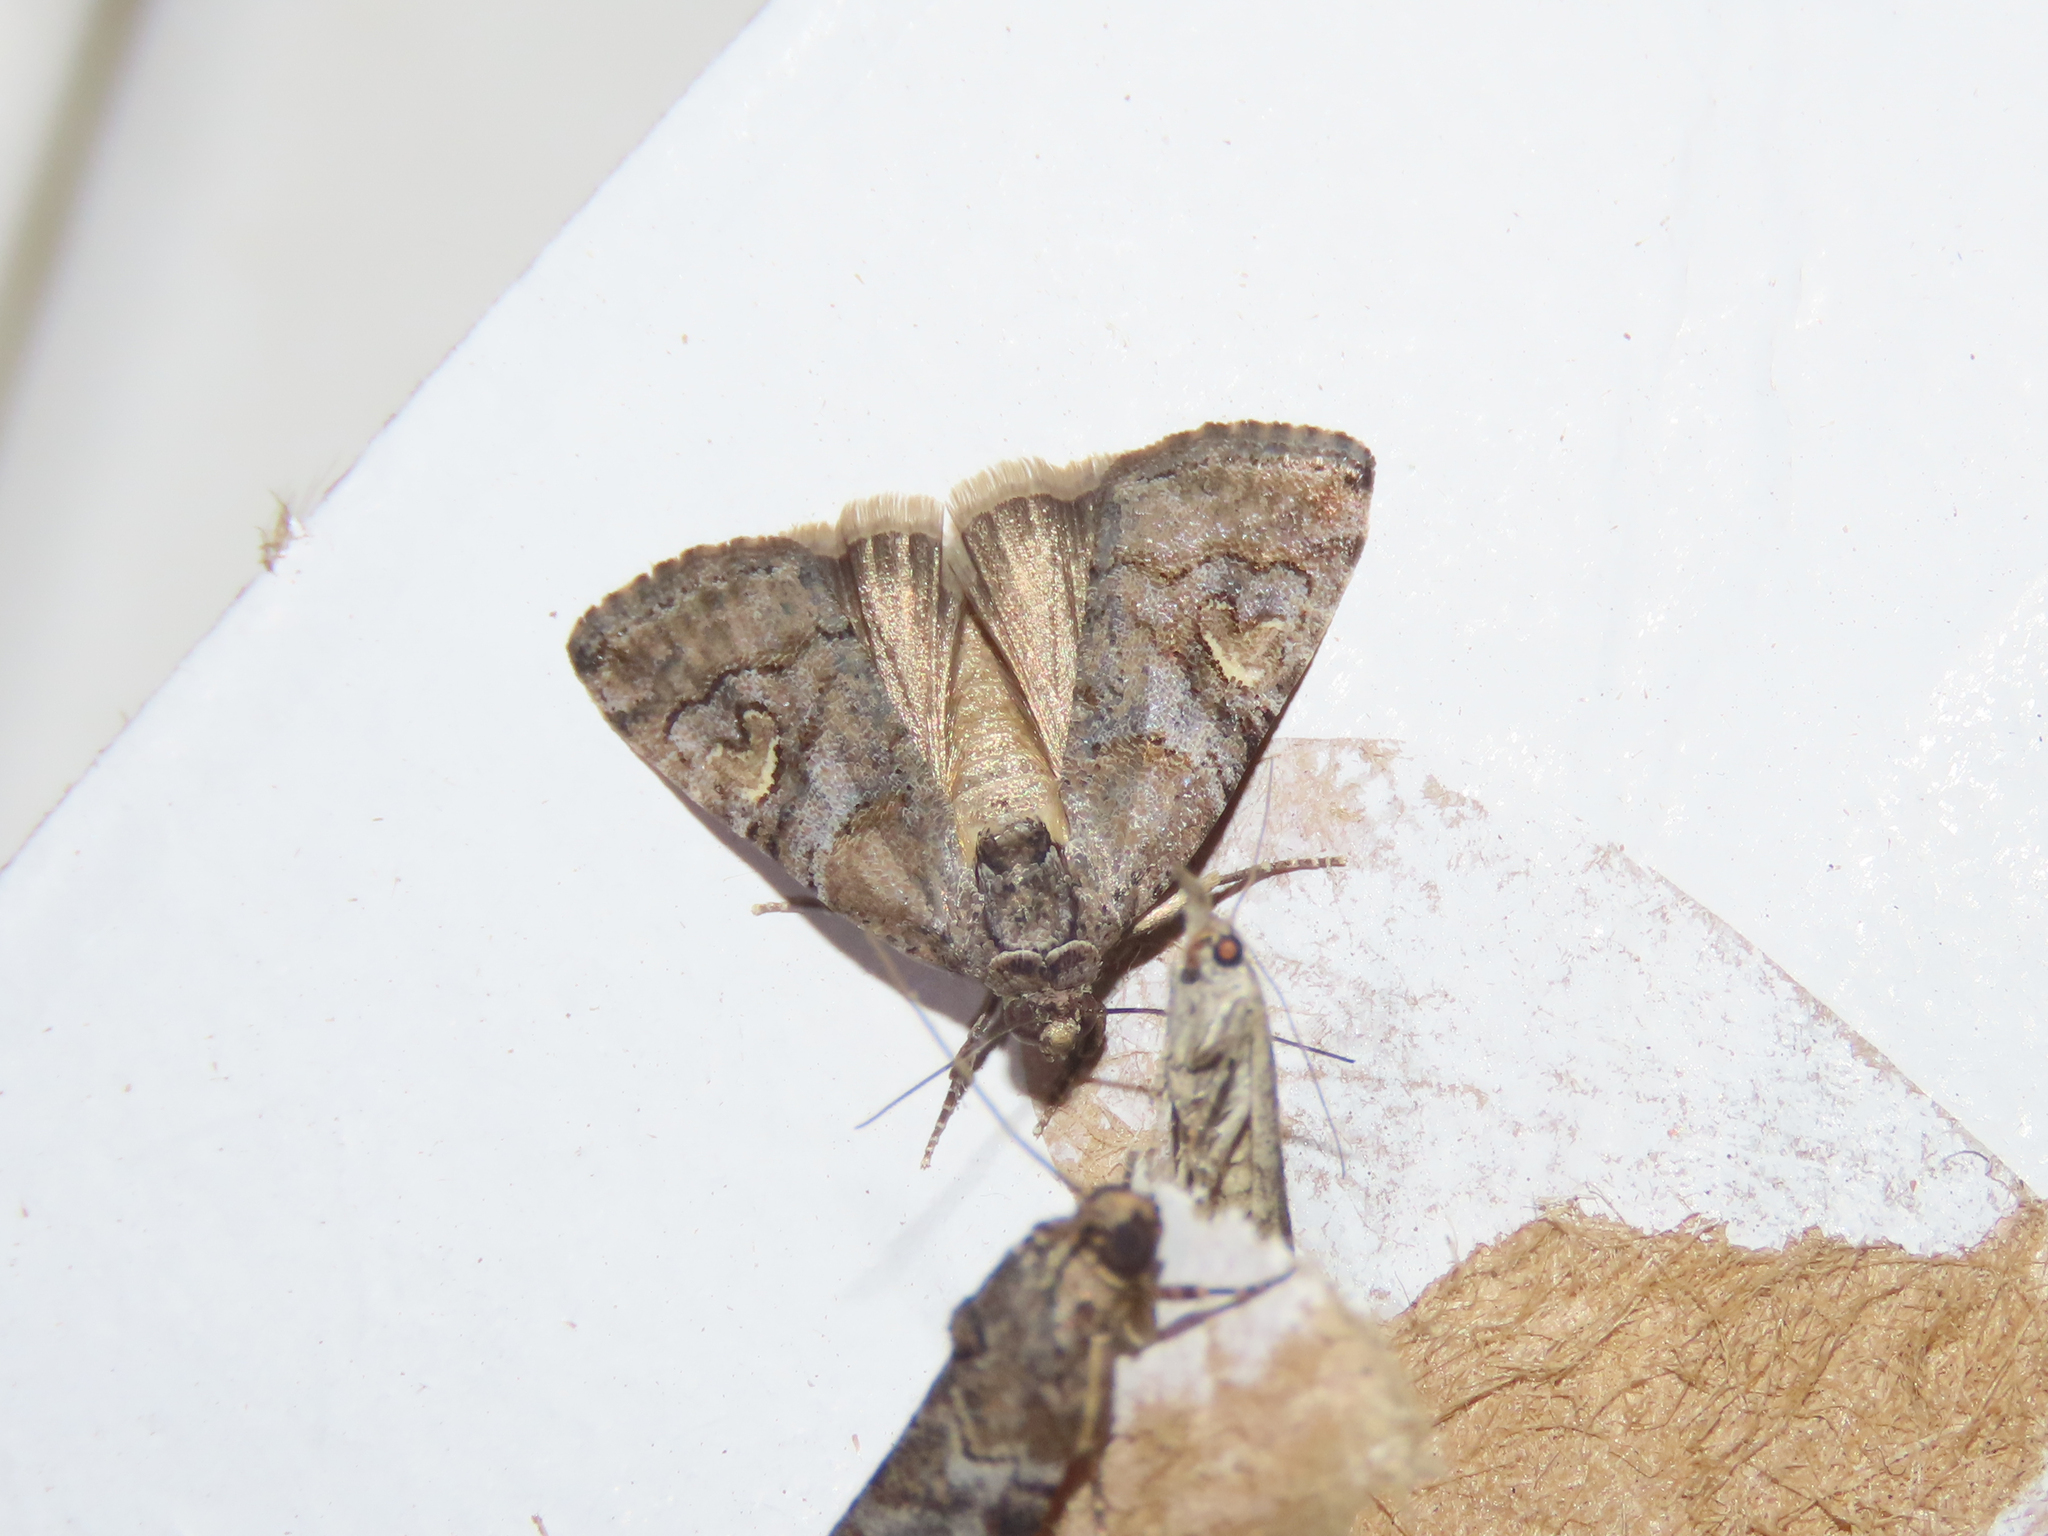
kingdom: Animalia
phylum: Arthropoda
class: Insecta
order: Lepidoptera
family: Noctuidae
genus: Metaponpneumata
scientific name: Metaponpneumata rogenhoferi
